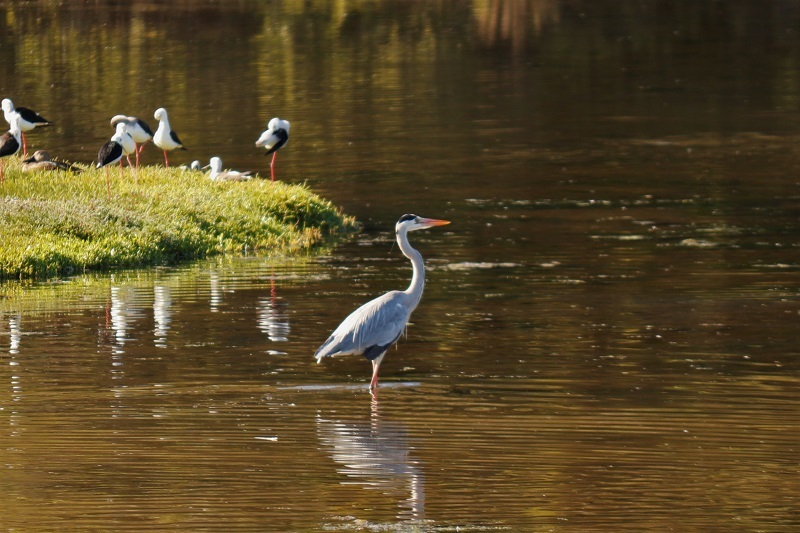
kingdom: Animalia
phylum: Chordata
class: Aves
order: Pelecaniformes
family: Ardeidae
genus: Ardea
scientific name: Ardea cinerea
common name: Grey heron
